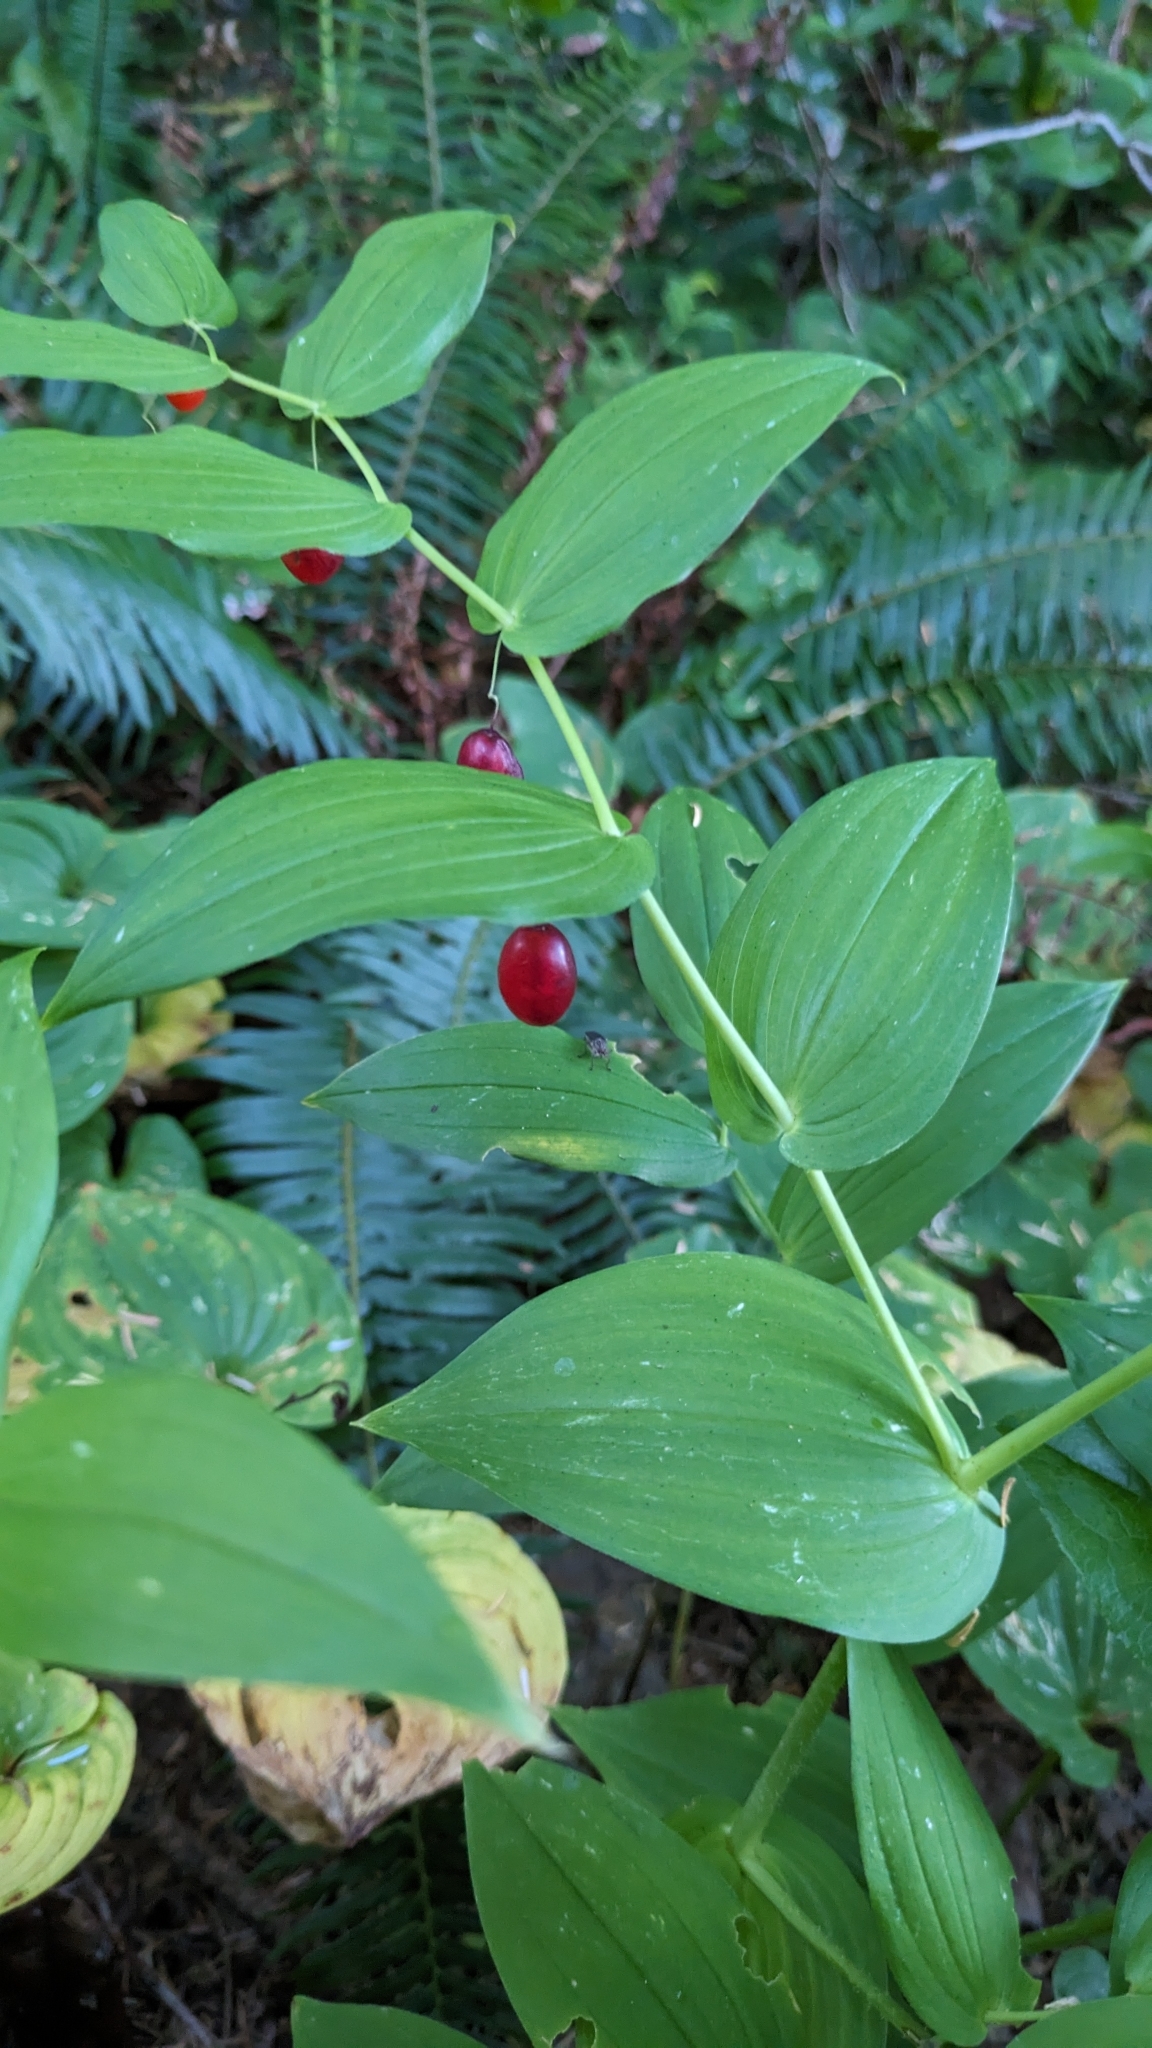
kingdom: Plantae
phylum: Tracheophyta
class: Liliopsida
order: Liliales
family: Liliaceae
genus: Streptopus
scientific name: Streptopus amplexifolius
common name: Clasp twisted stalk
